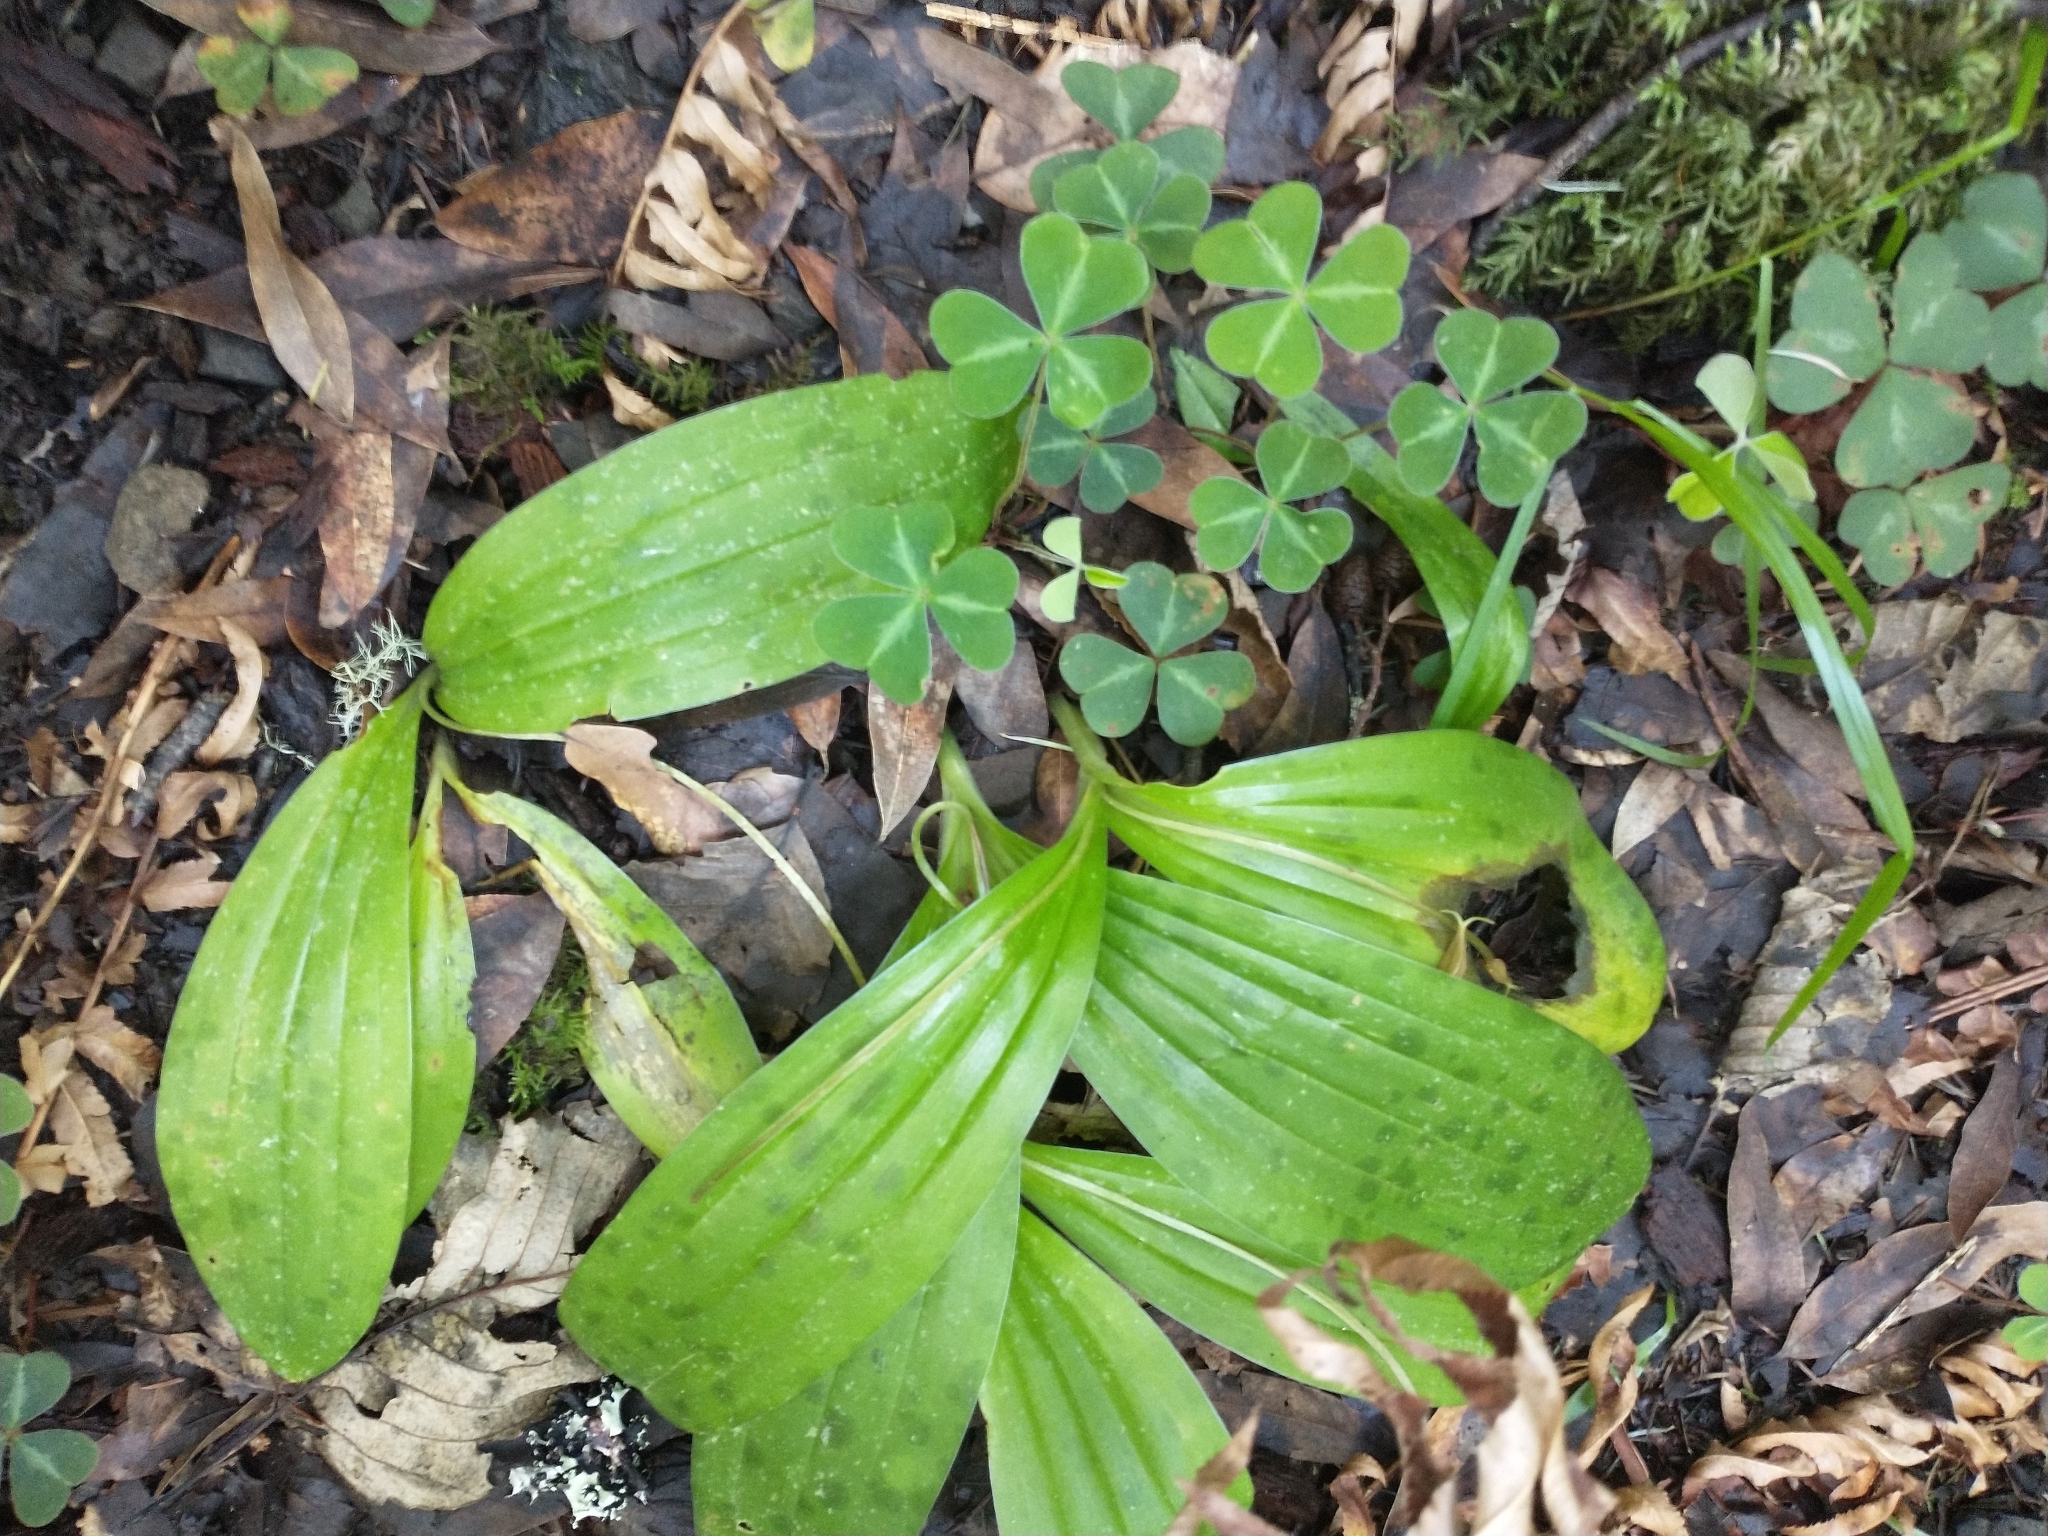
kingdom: Plantae
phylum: Tracheophyta
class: Liliopsida
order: Liliales
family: Liliaceae
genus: Scoliopus
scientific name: Scoliopus bigelovii
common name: Foetid adder's-tongue
